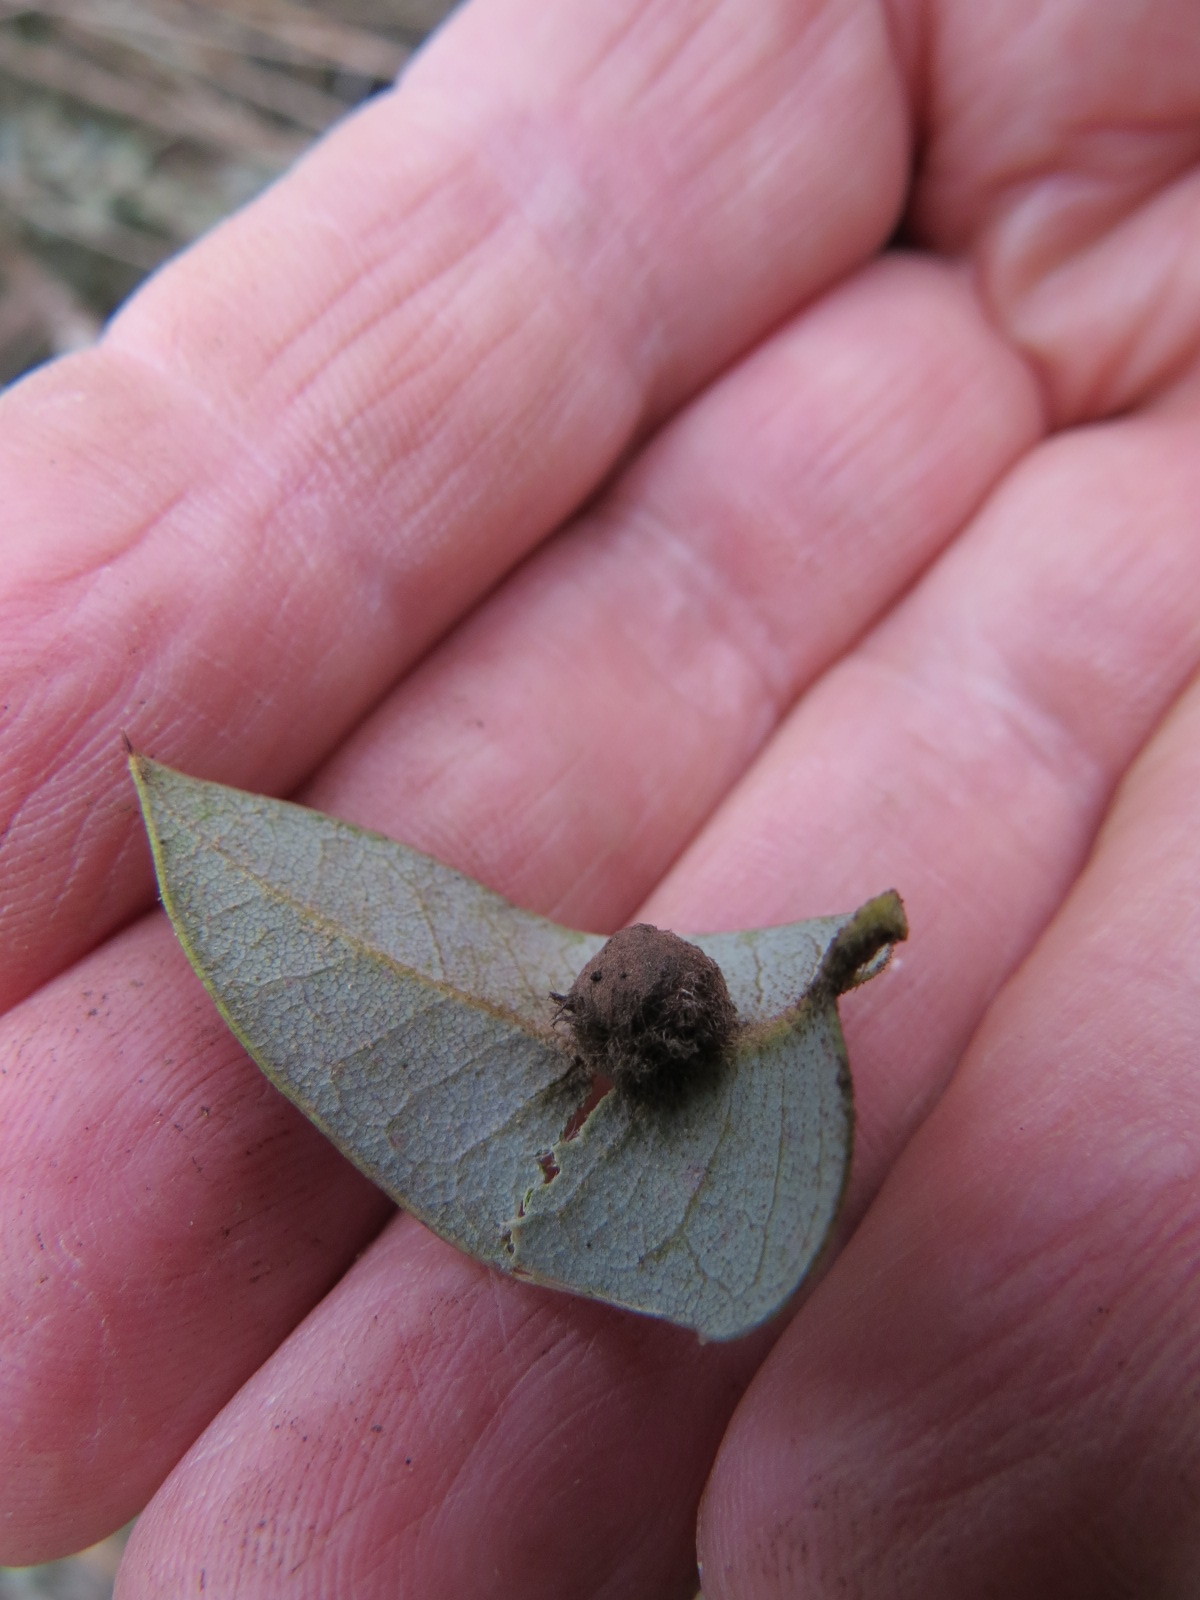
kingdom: Animalia
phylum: Arthropoda
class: Insecta
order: Hymenoptera
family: Cynipidae
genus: Disholandricus
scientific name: Disholandricus
